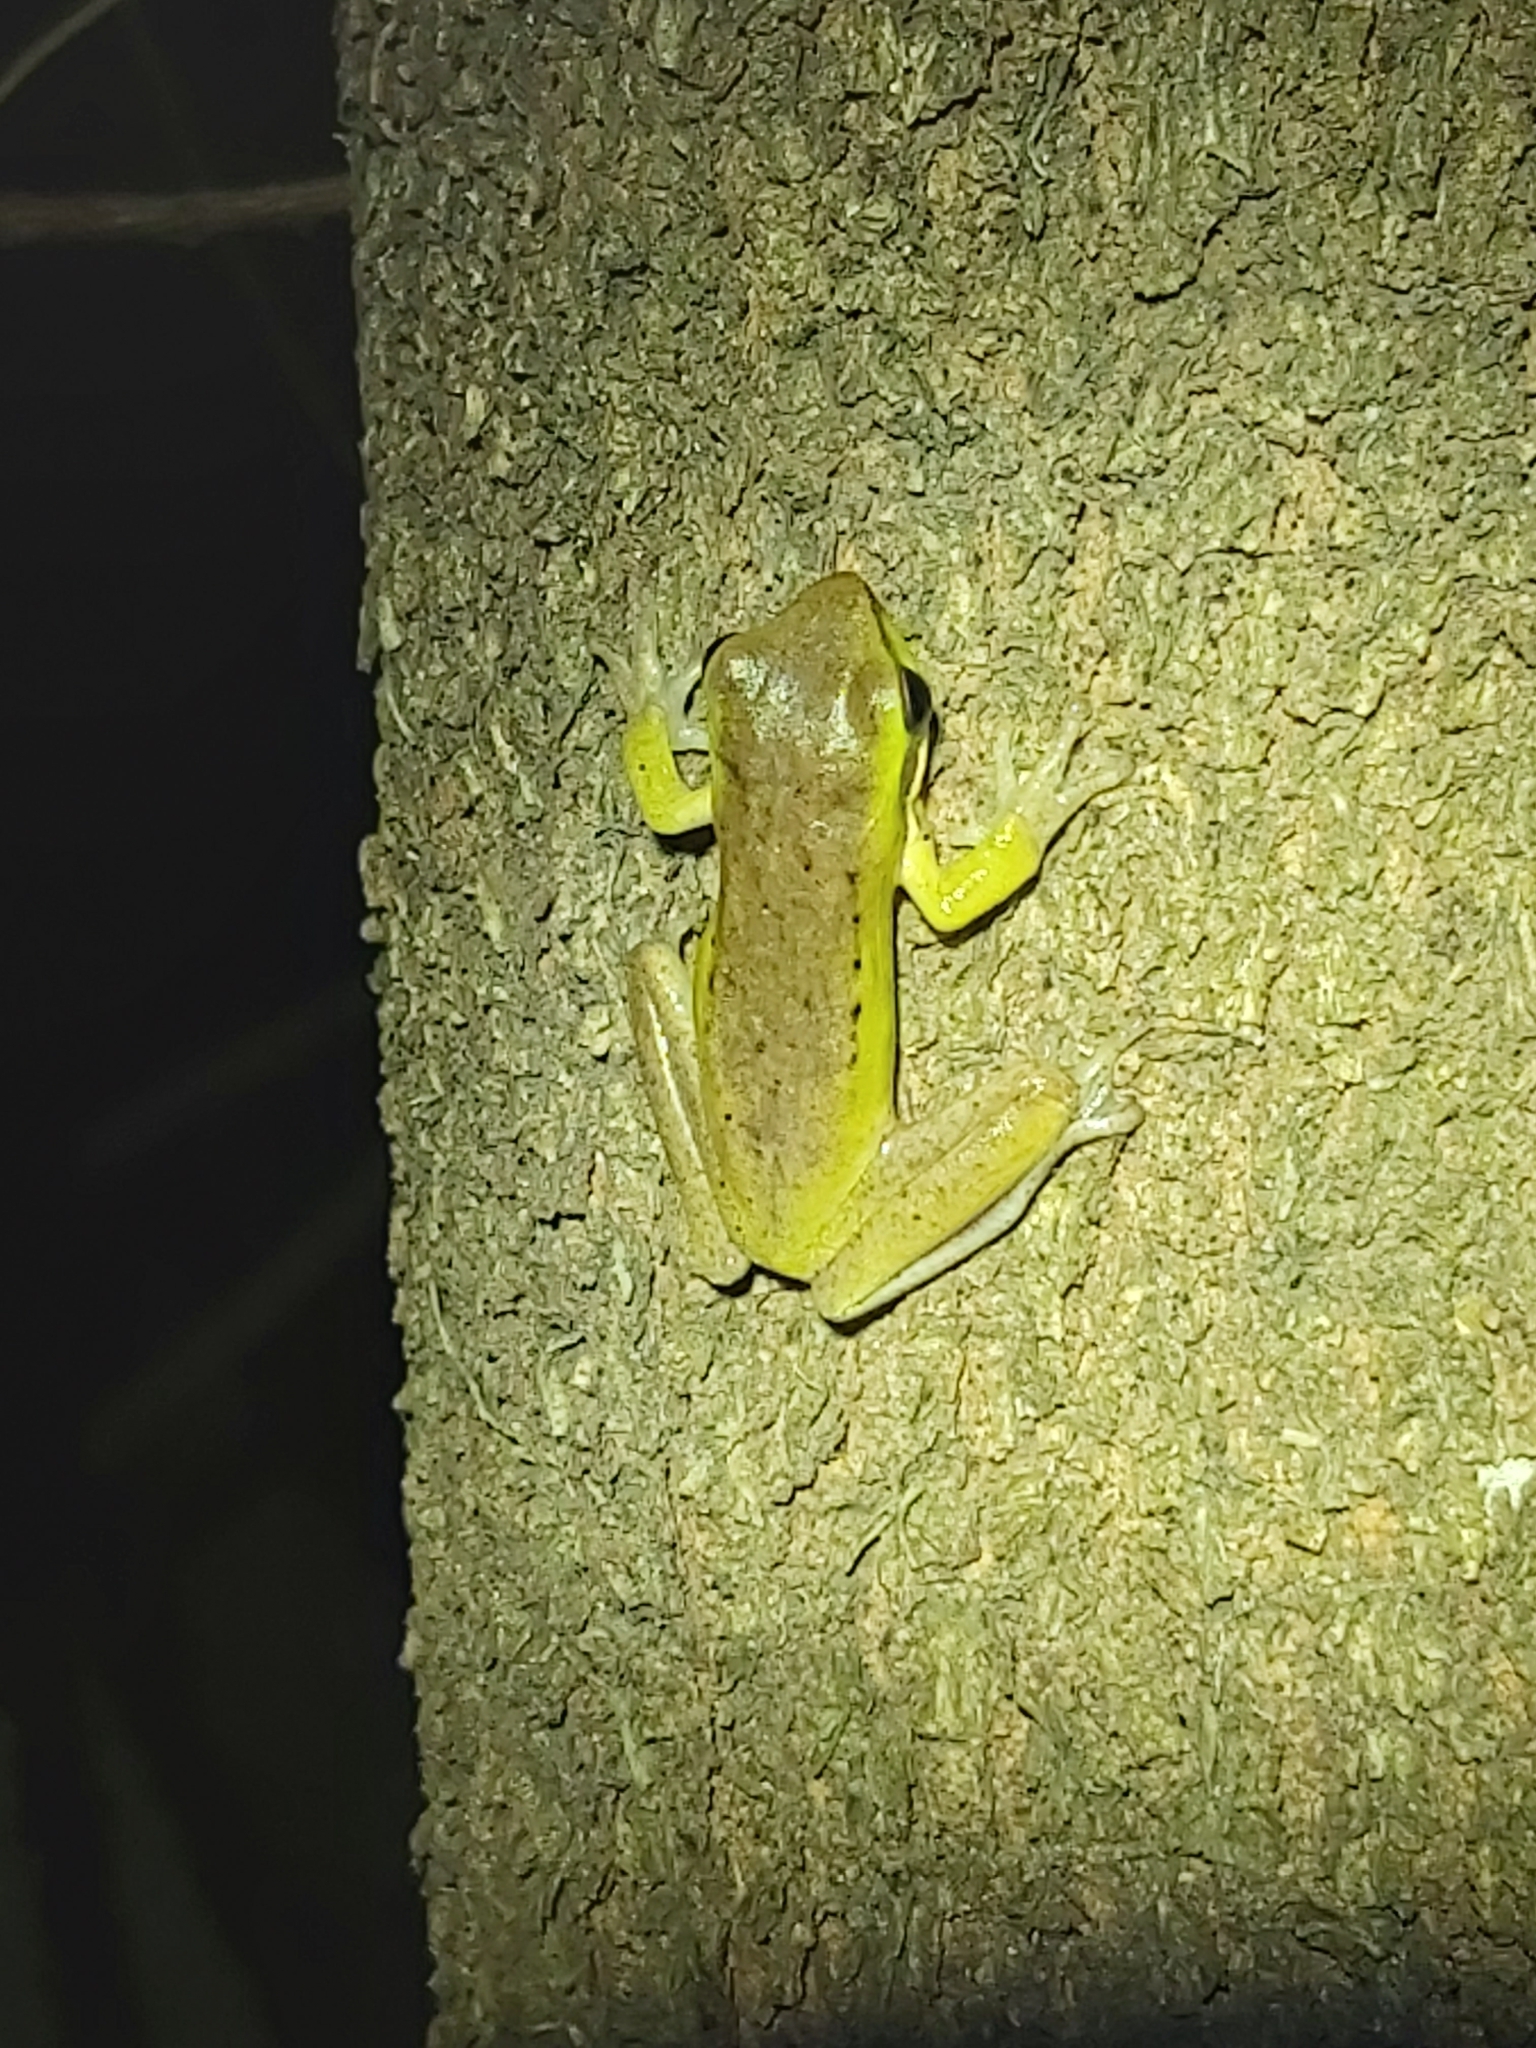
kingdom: Animalia
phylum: Chordata
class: Amphibia
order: Anura
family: Pelodryadidae
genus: Litoria
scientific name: Litoria fallax
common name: Eastern dwarf treefrog
